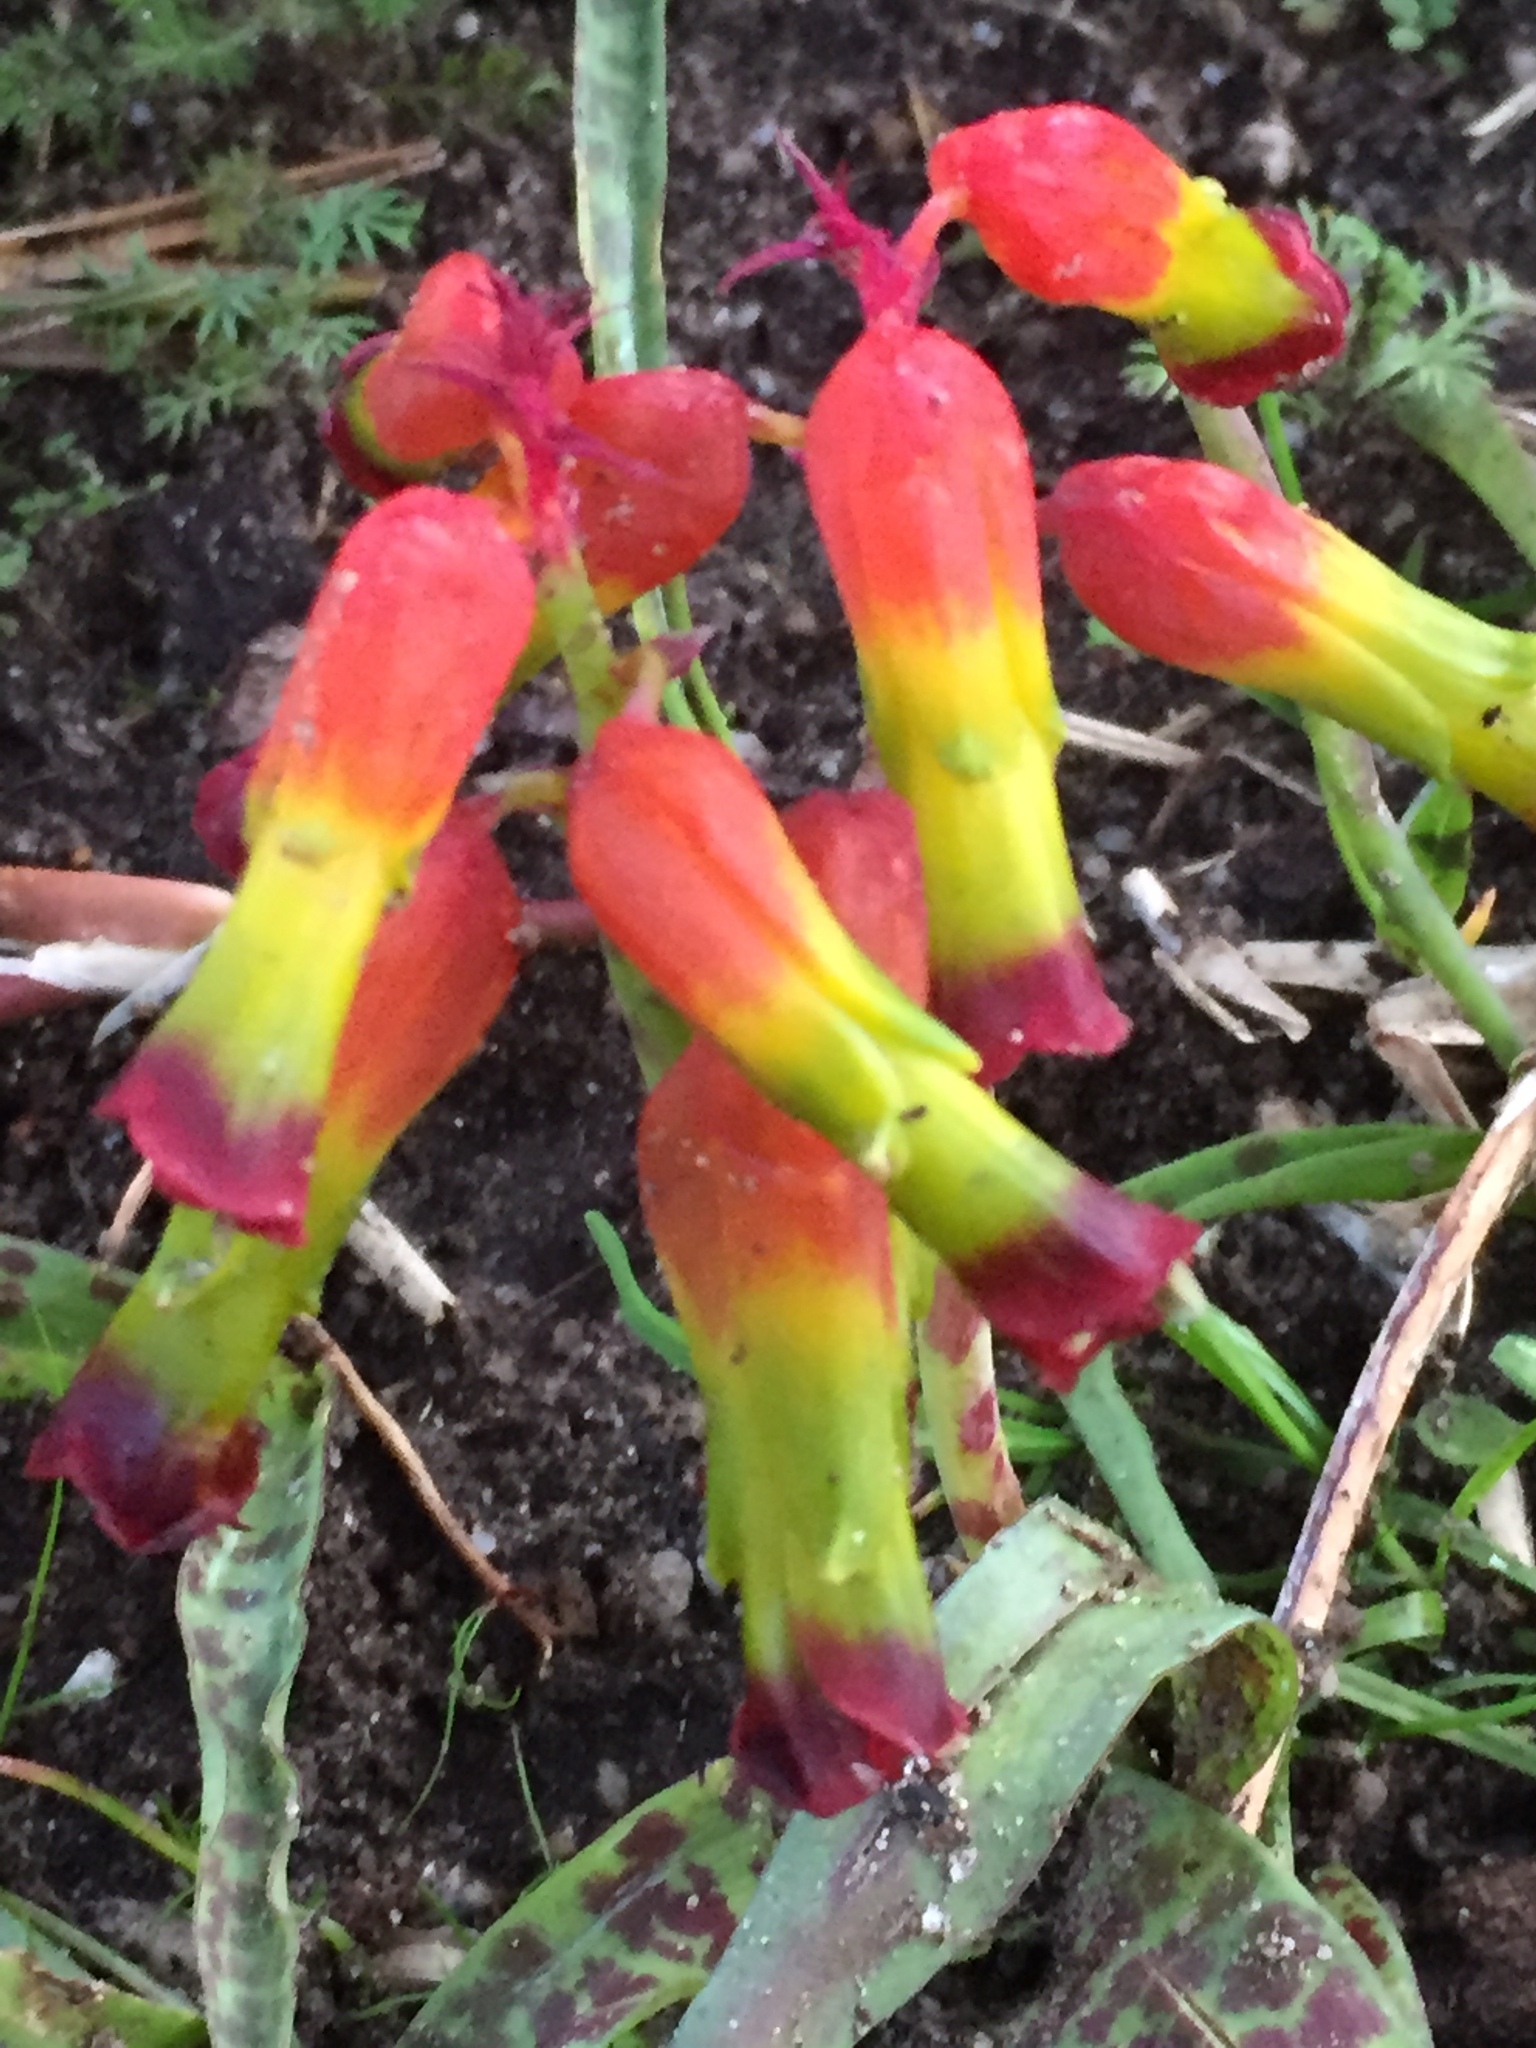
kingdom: Plantae
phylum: Tracheophyta
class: Liliopsida
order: Asparagales
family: Asparagaceae
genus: Lachenalia
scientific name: Lachenalia quadricolor
